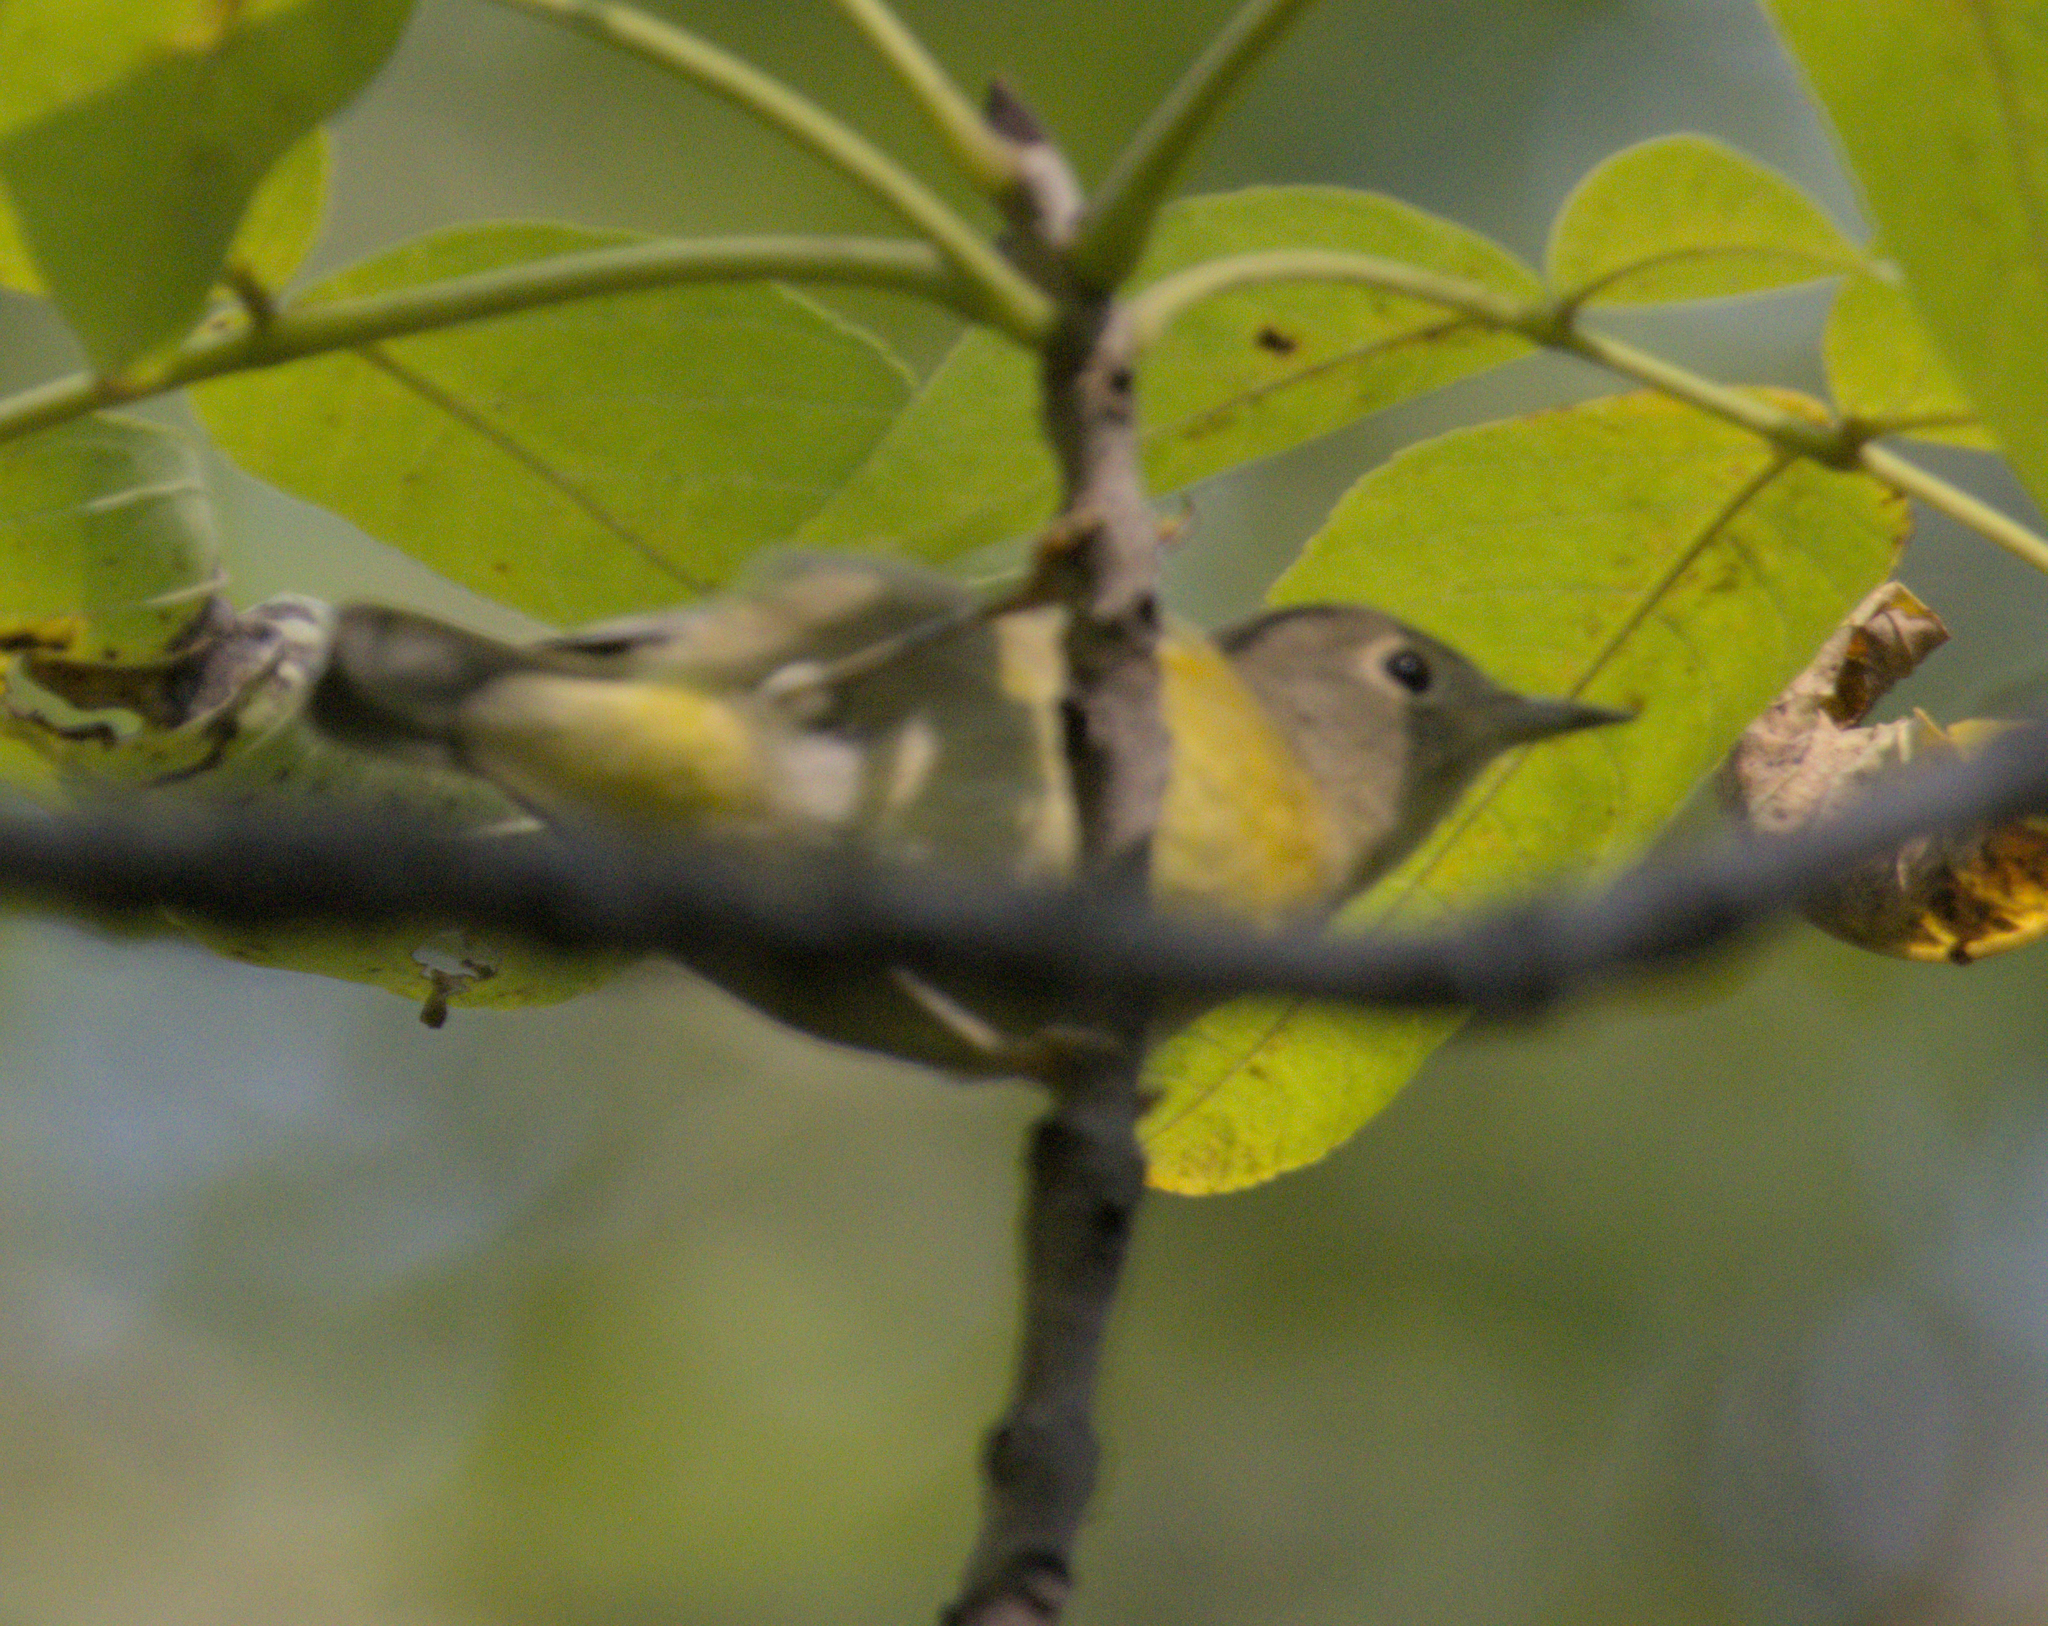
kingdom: Animalia
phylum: Chordata
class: Aves
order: Passeriformes
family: Parulidae
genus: Leiothlypis
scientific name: Leiothlypis ruficapilla
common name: Nashville warbler
